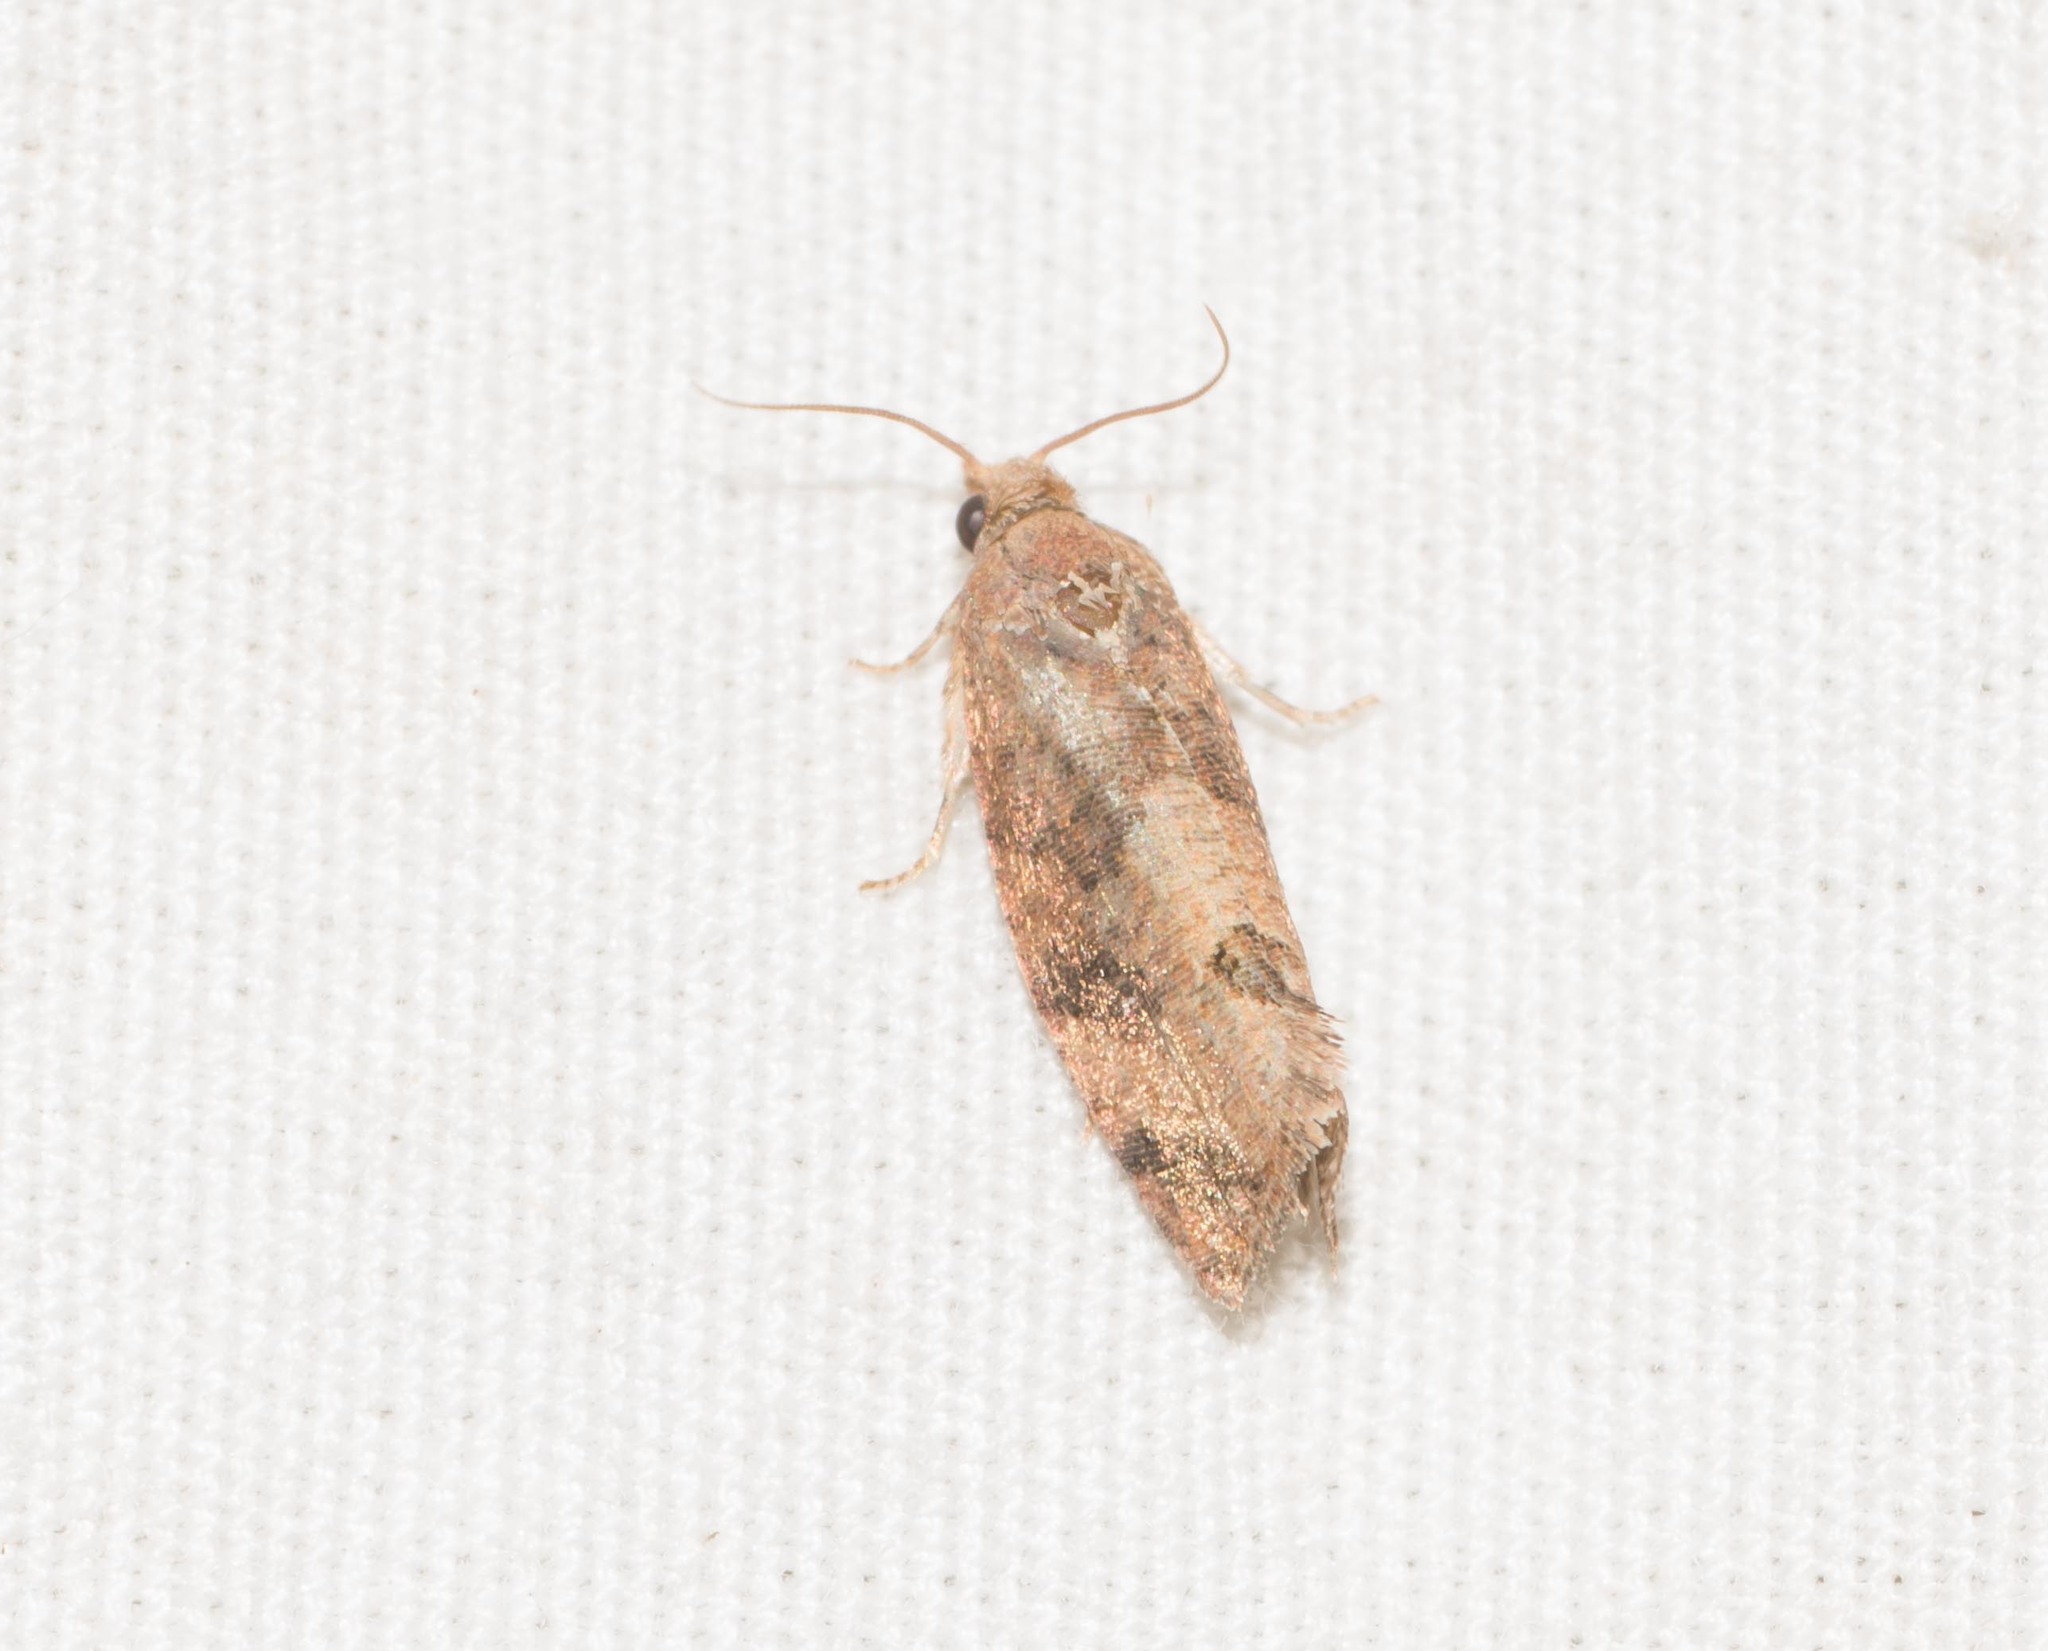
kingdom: Animalia
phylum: Arthropoda
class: Insecta
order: Lepidoptera
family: Tortricidae
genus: Cryptophlebia
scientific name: Cryptophlebia illepida
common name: Moth
